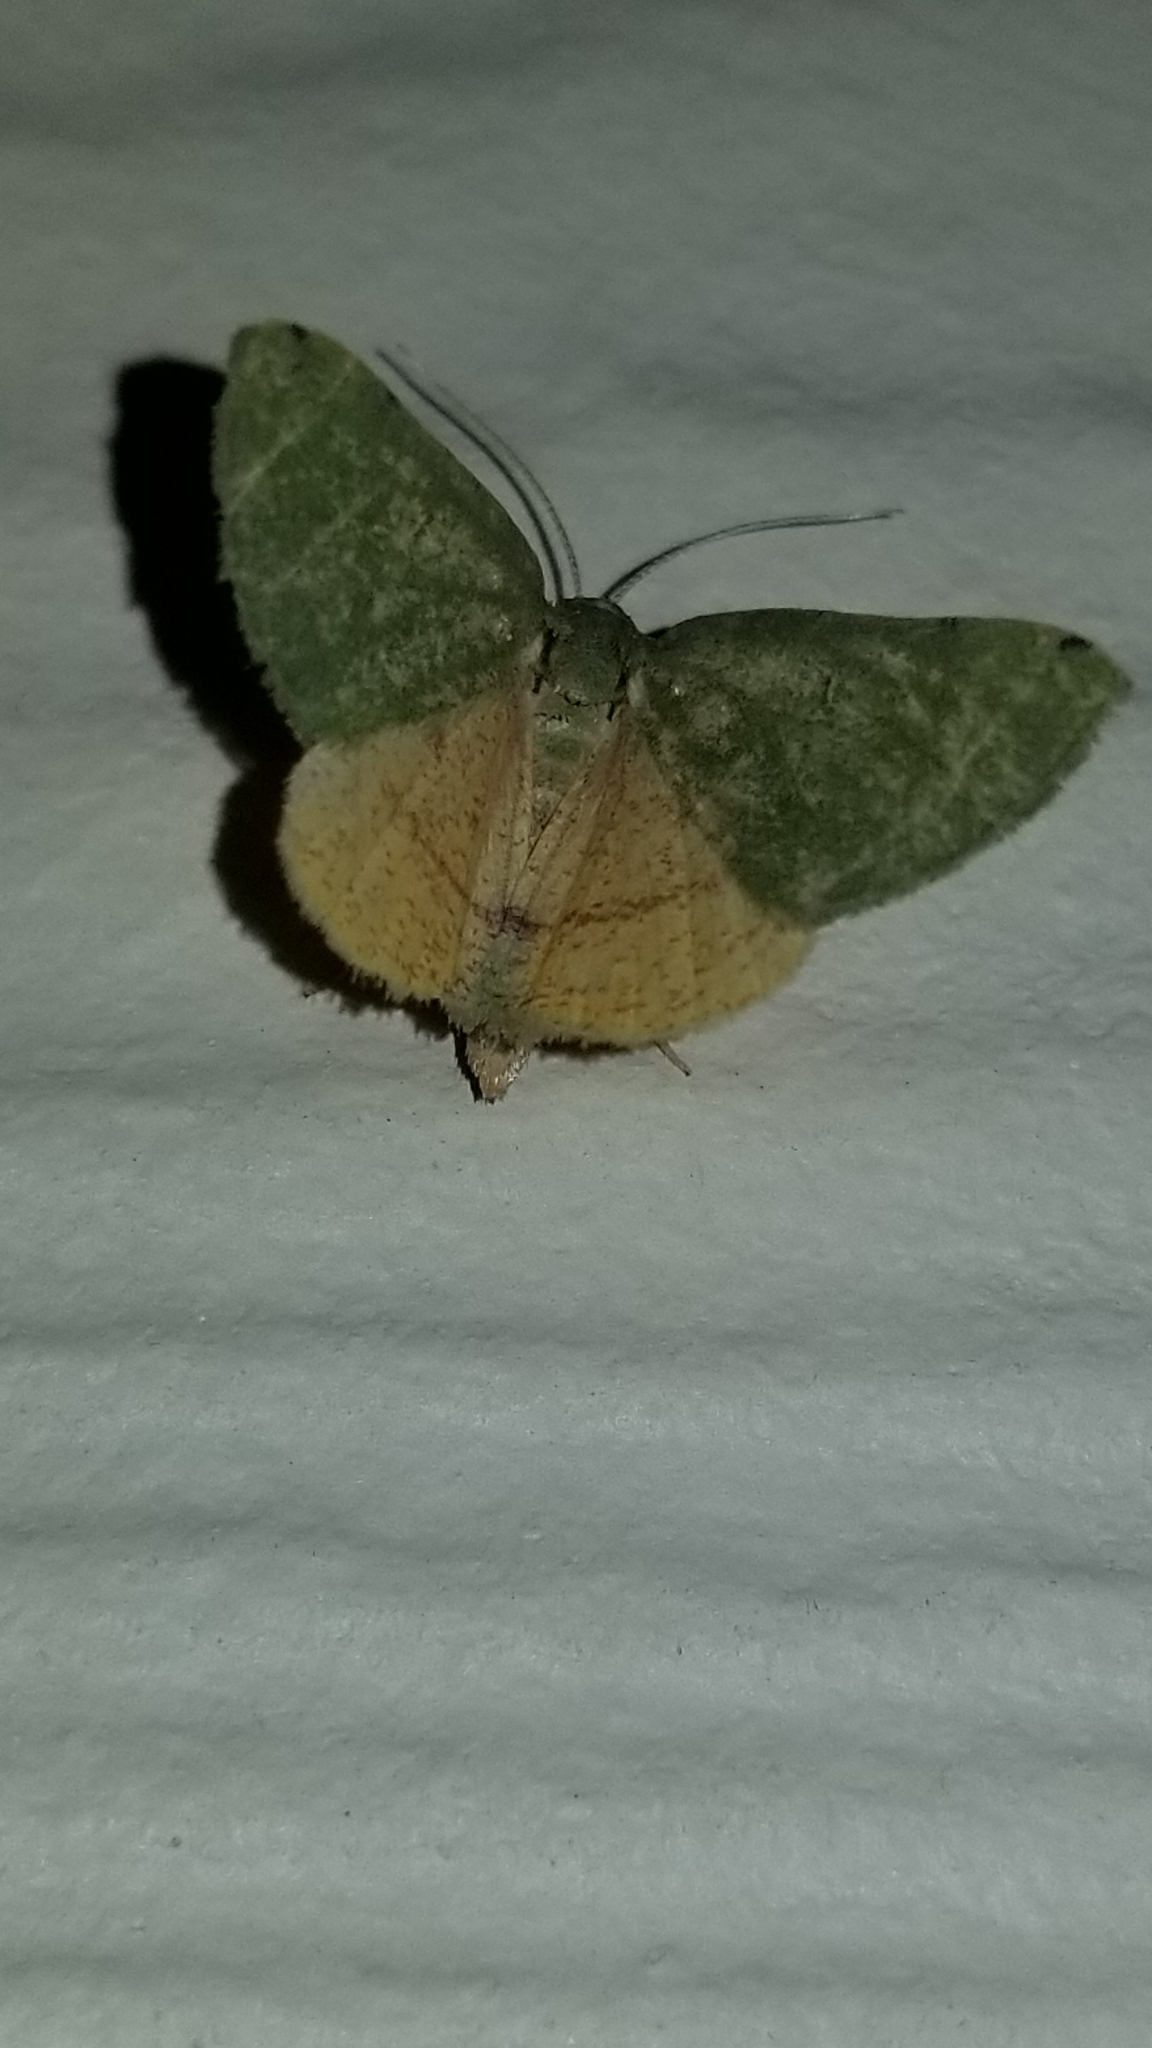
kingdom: Animalia
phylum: Arthropoda
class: Insecta
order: Lepidoptera
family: Geometridae
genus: Chloraspilates
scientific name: Chloraspilates bicoloraria
